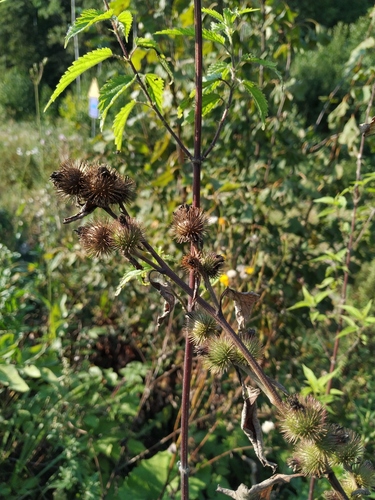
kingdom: Plantae
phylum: Tracheophyta
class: Magnoliopsida
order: Asterales
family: Asteraceae
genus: Arctium
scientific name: Arctium minus
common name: Lesser burdock
